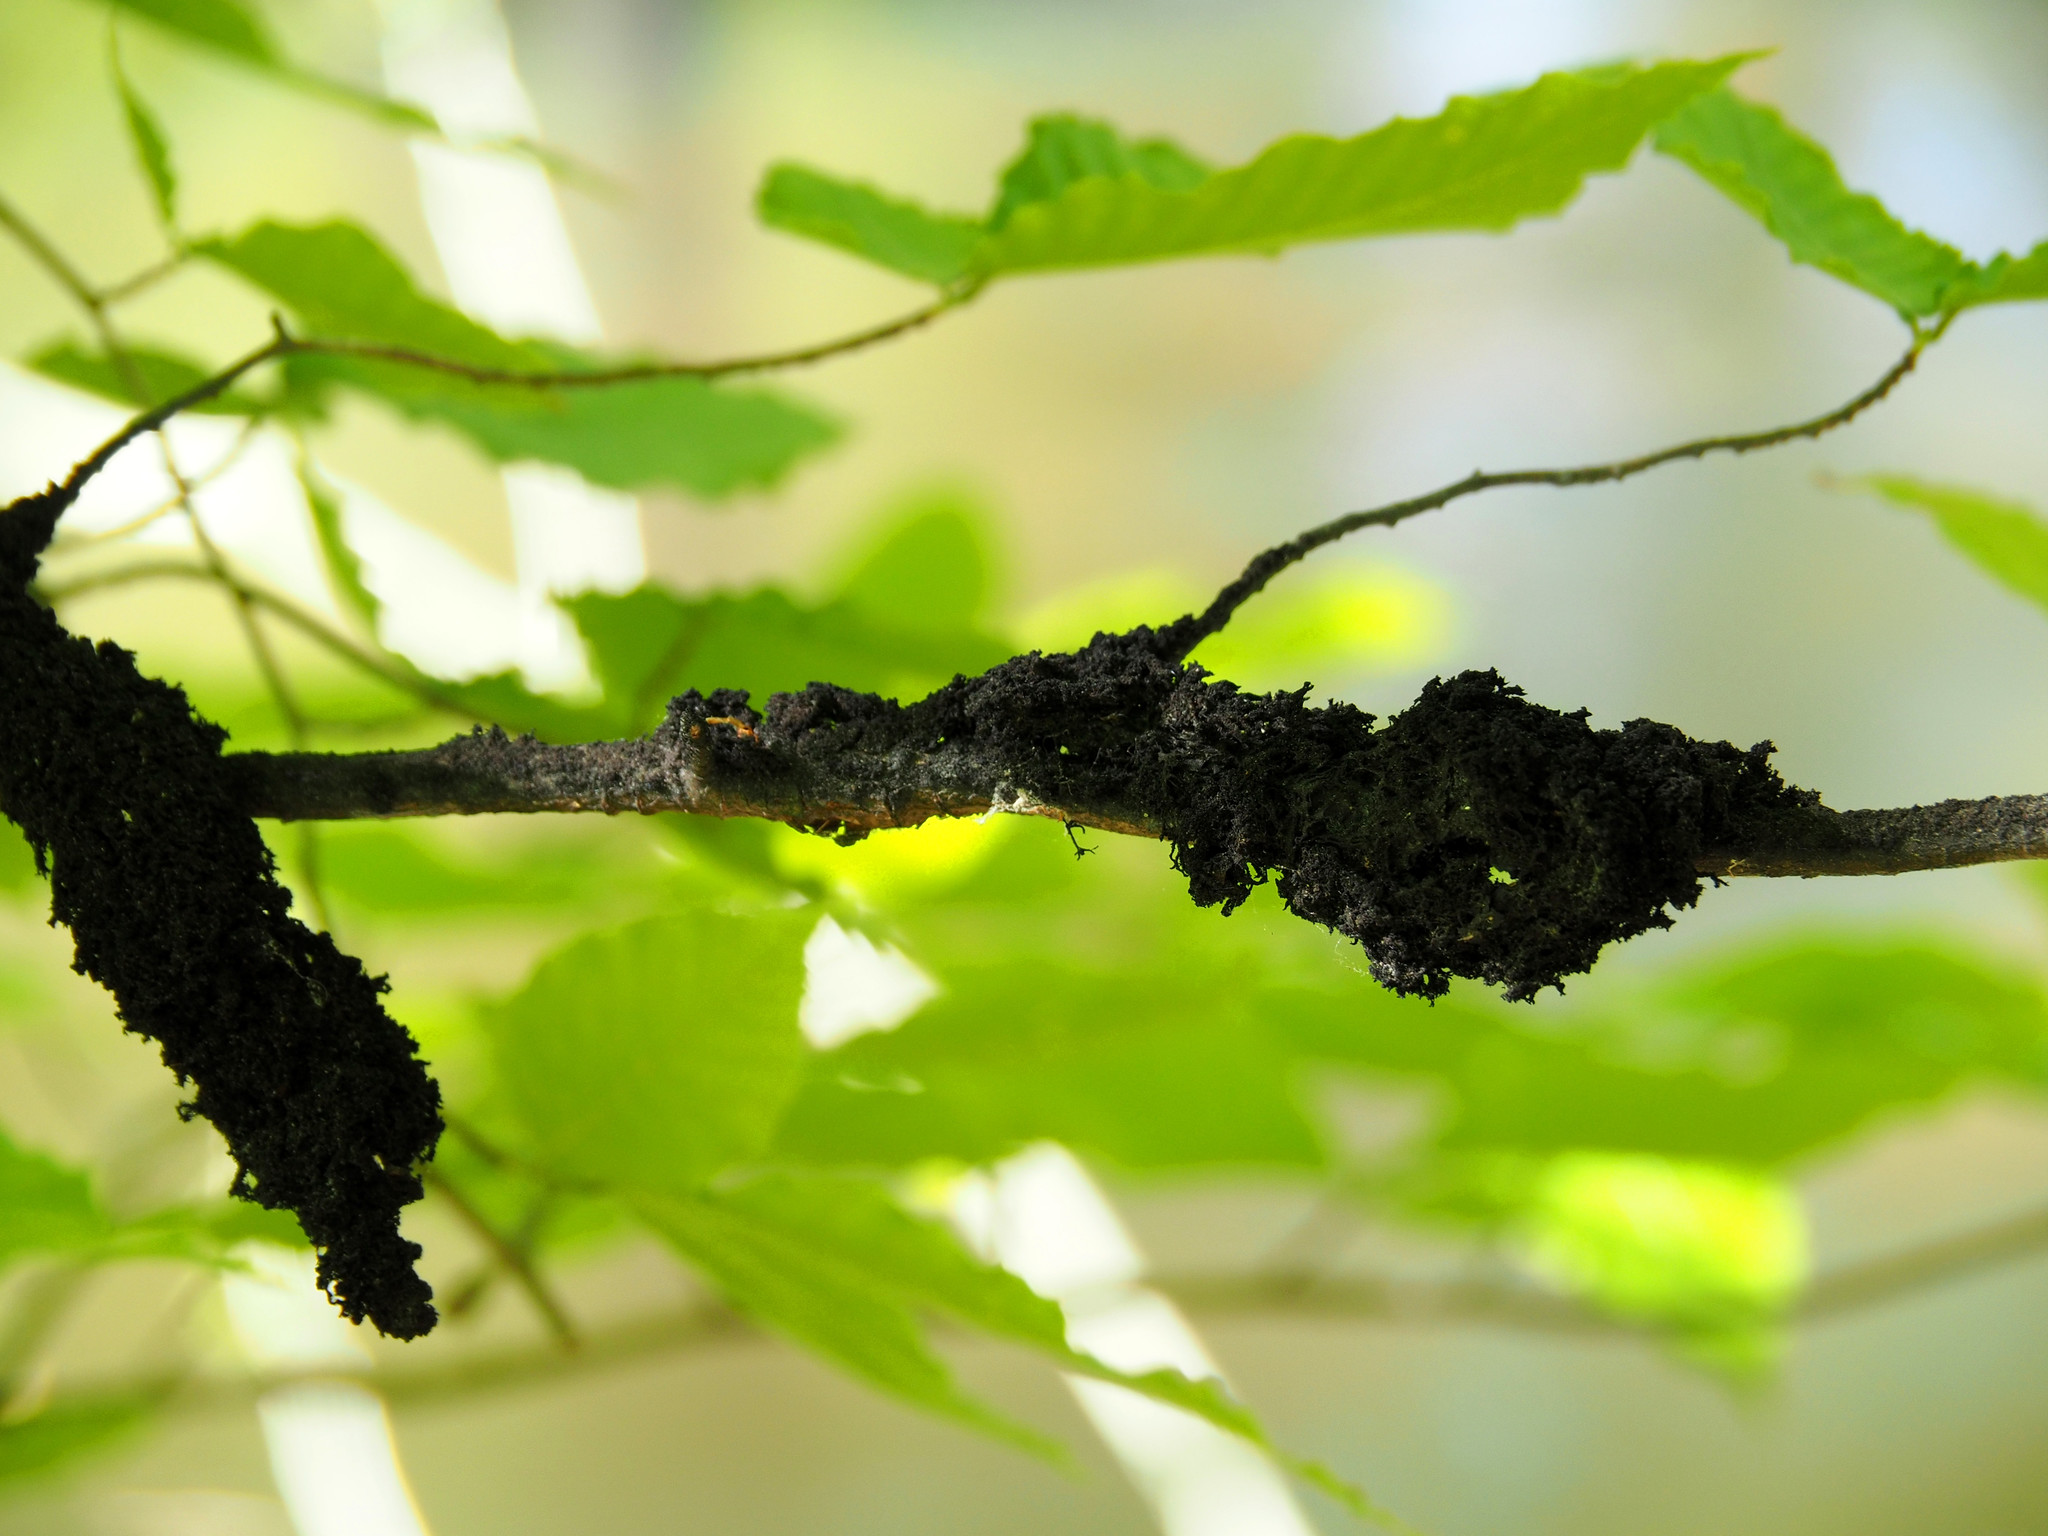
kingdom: Fungi
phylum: Ascomycota
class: Dothideomycetes
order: Capnodiales
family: Capnodiaceae
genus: Scorias
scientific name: Scorias spongiosa
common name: Black sooty mold
